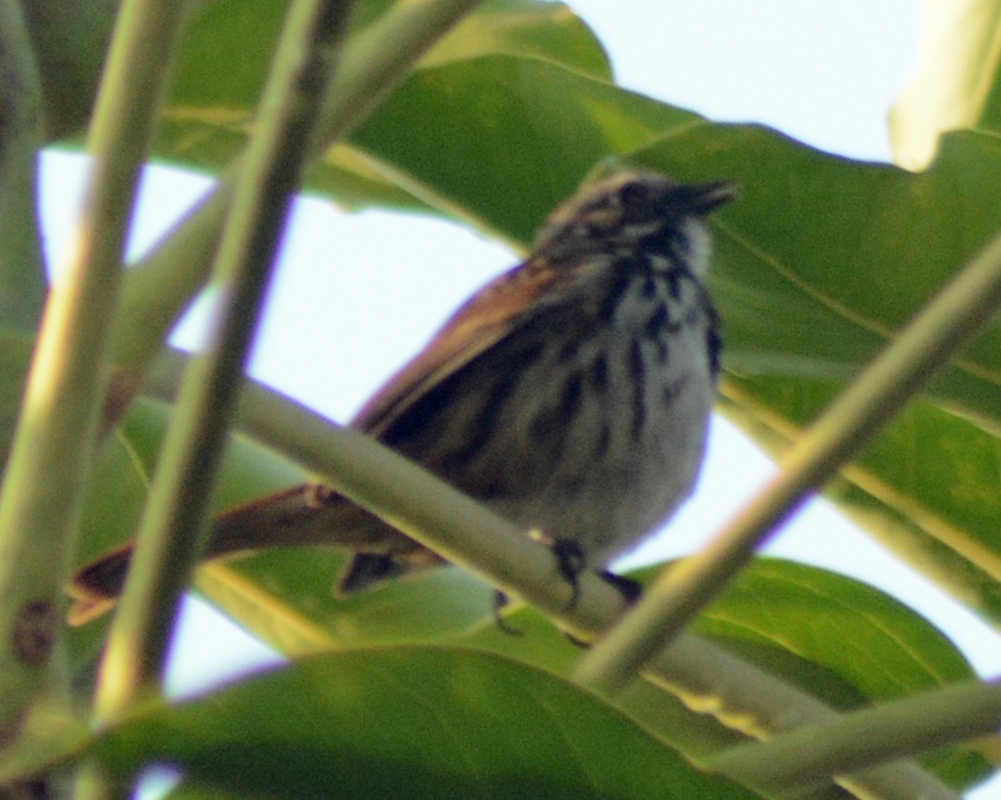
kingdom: Animalia
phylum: Chordata
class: Aves
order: Passeriformes
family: Passerellidae
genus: Melospiza
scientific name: Melospiza melodia
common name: Song sparrow
